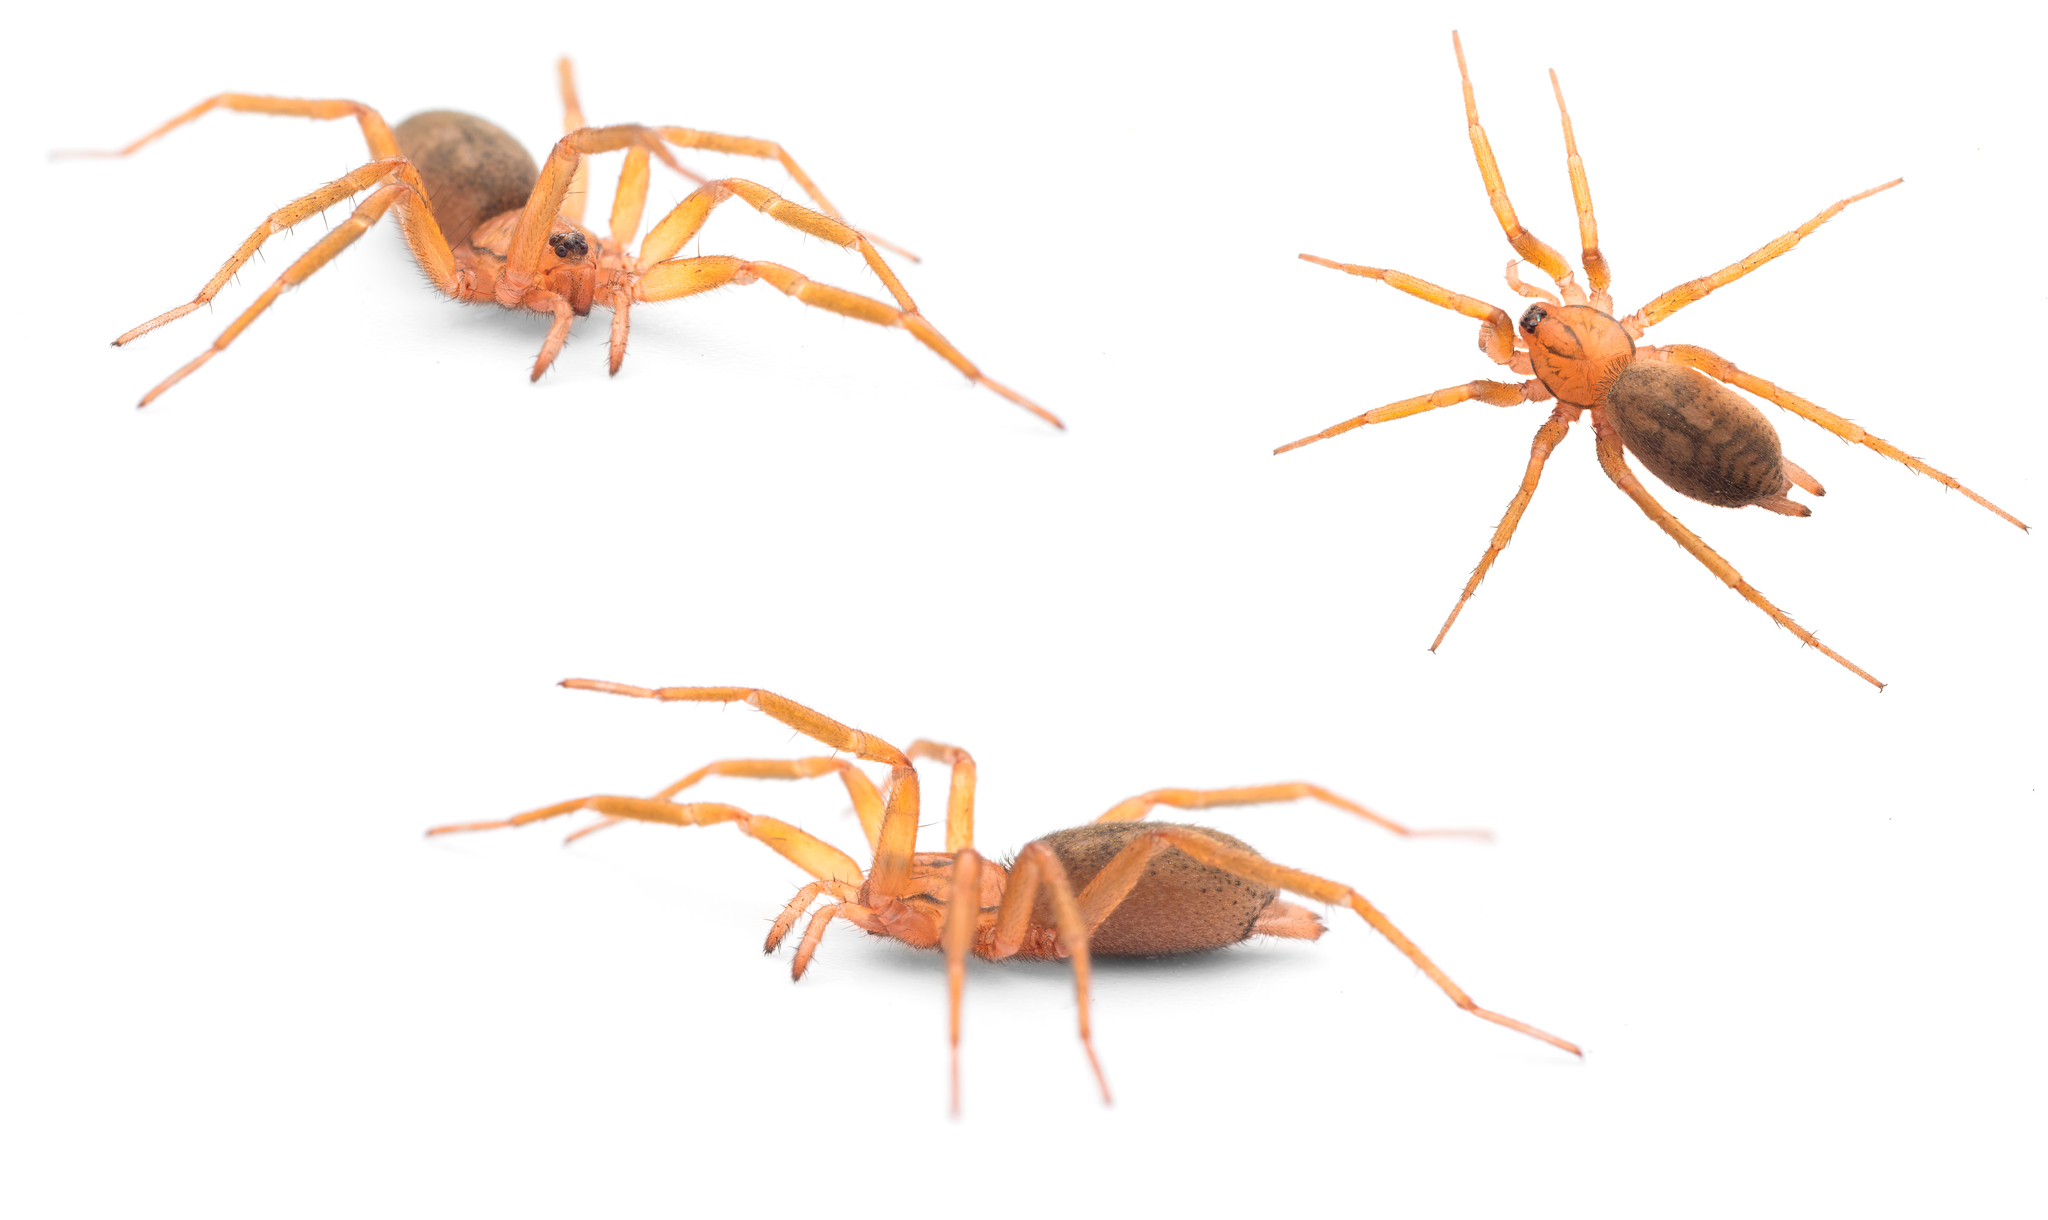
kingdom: Animalia
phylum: Arthropoda
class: Arachnida
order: Araneae
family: Gnaphosidae
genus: Pterotricha
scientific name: Pterotricha simoni
